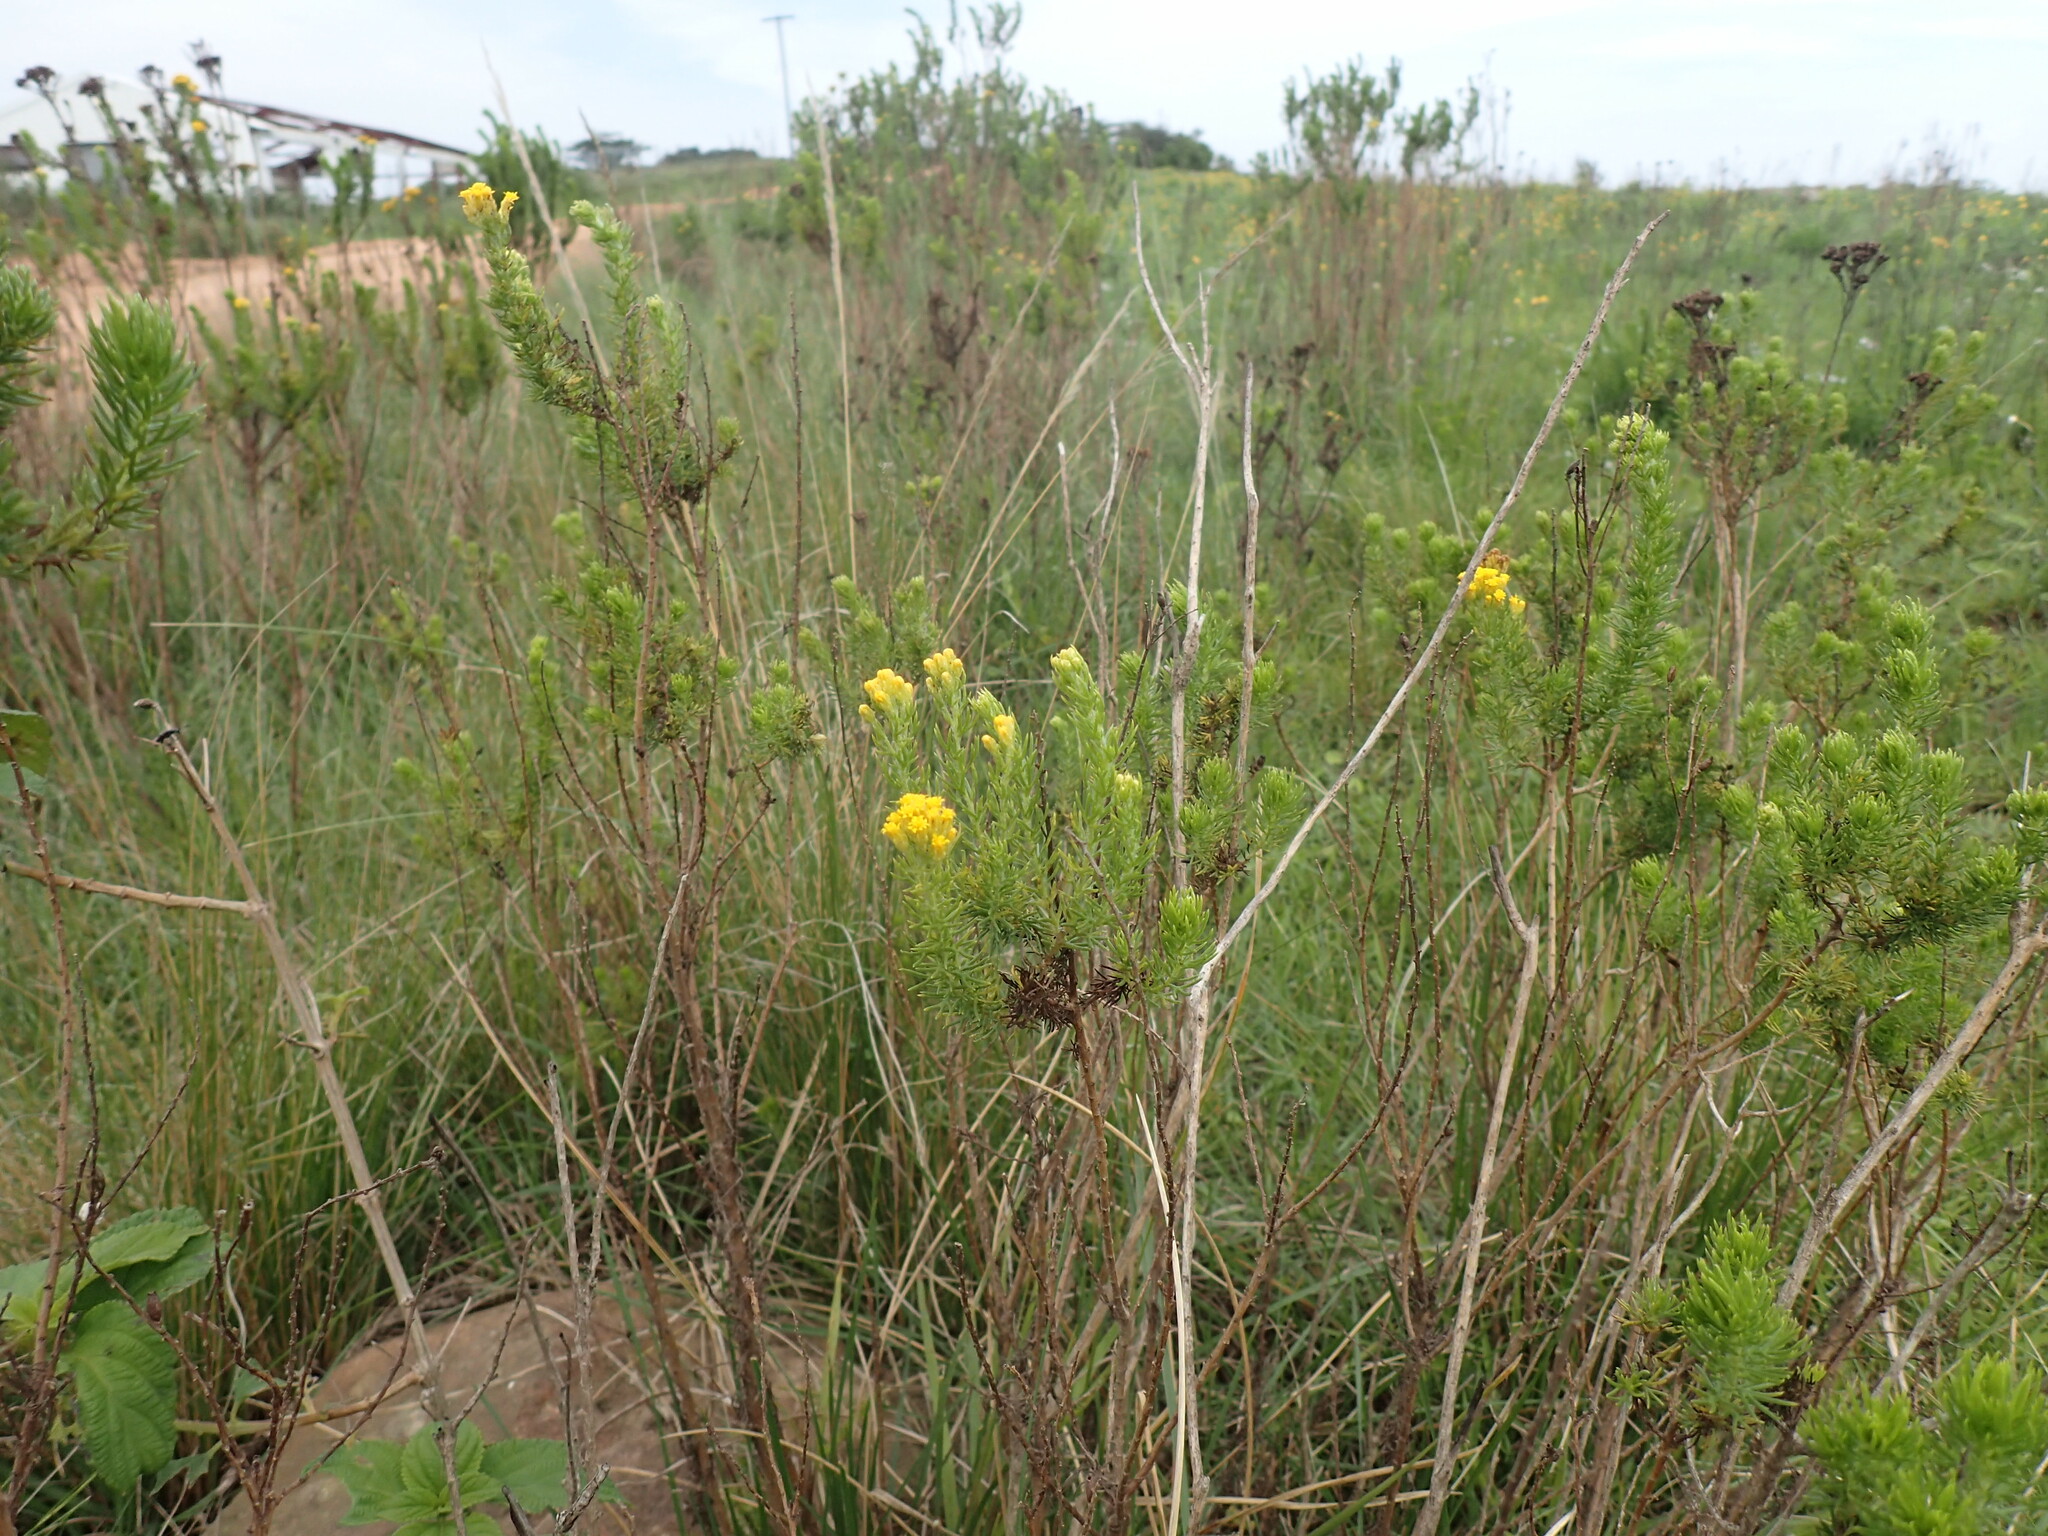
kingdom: Plantae
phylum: Tracheophyta
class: Magnoliopsida
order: Asterales
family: Asteraceae
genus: Phymaspermum
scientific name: Phymaspermum acerosum
